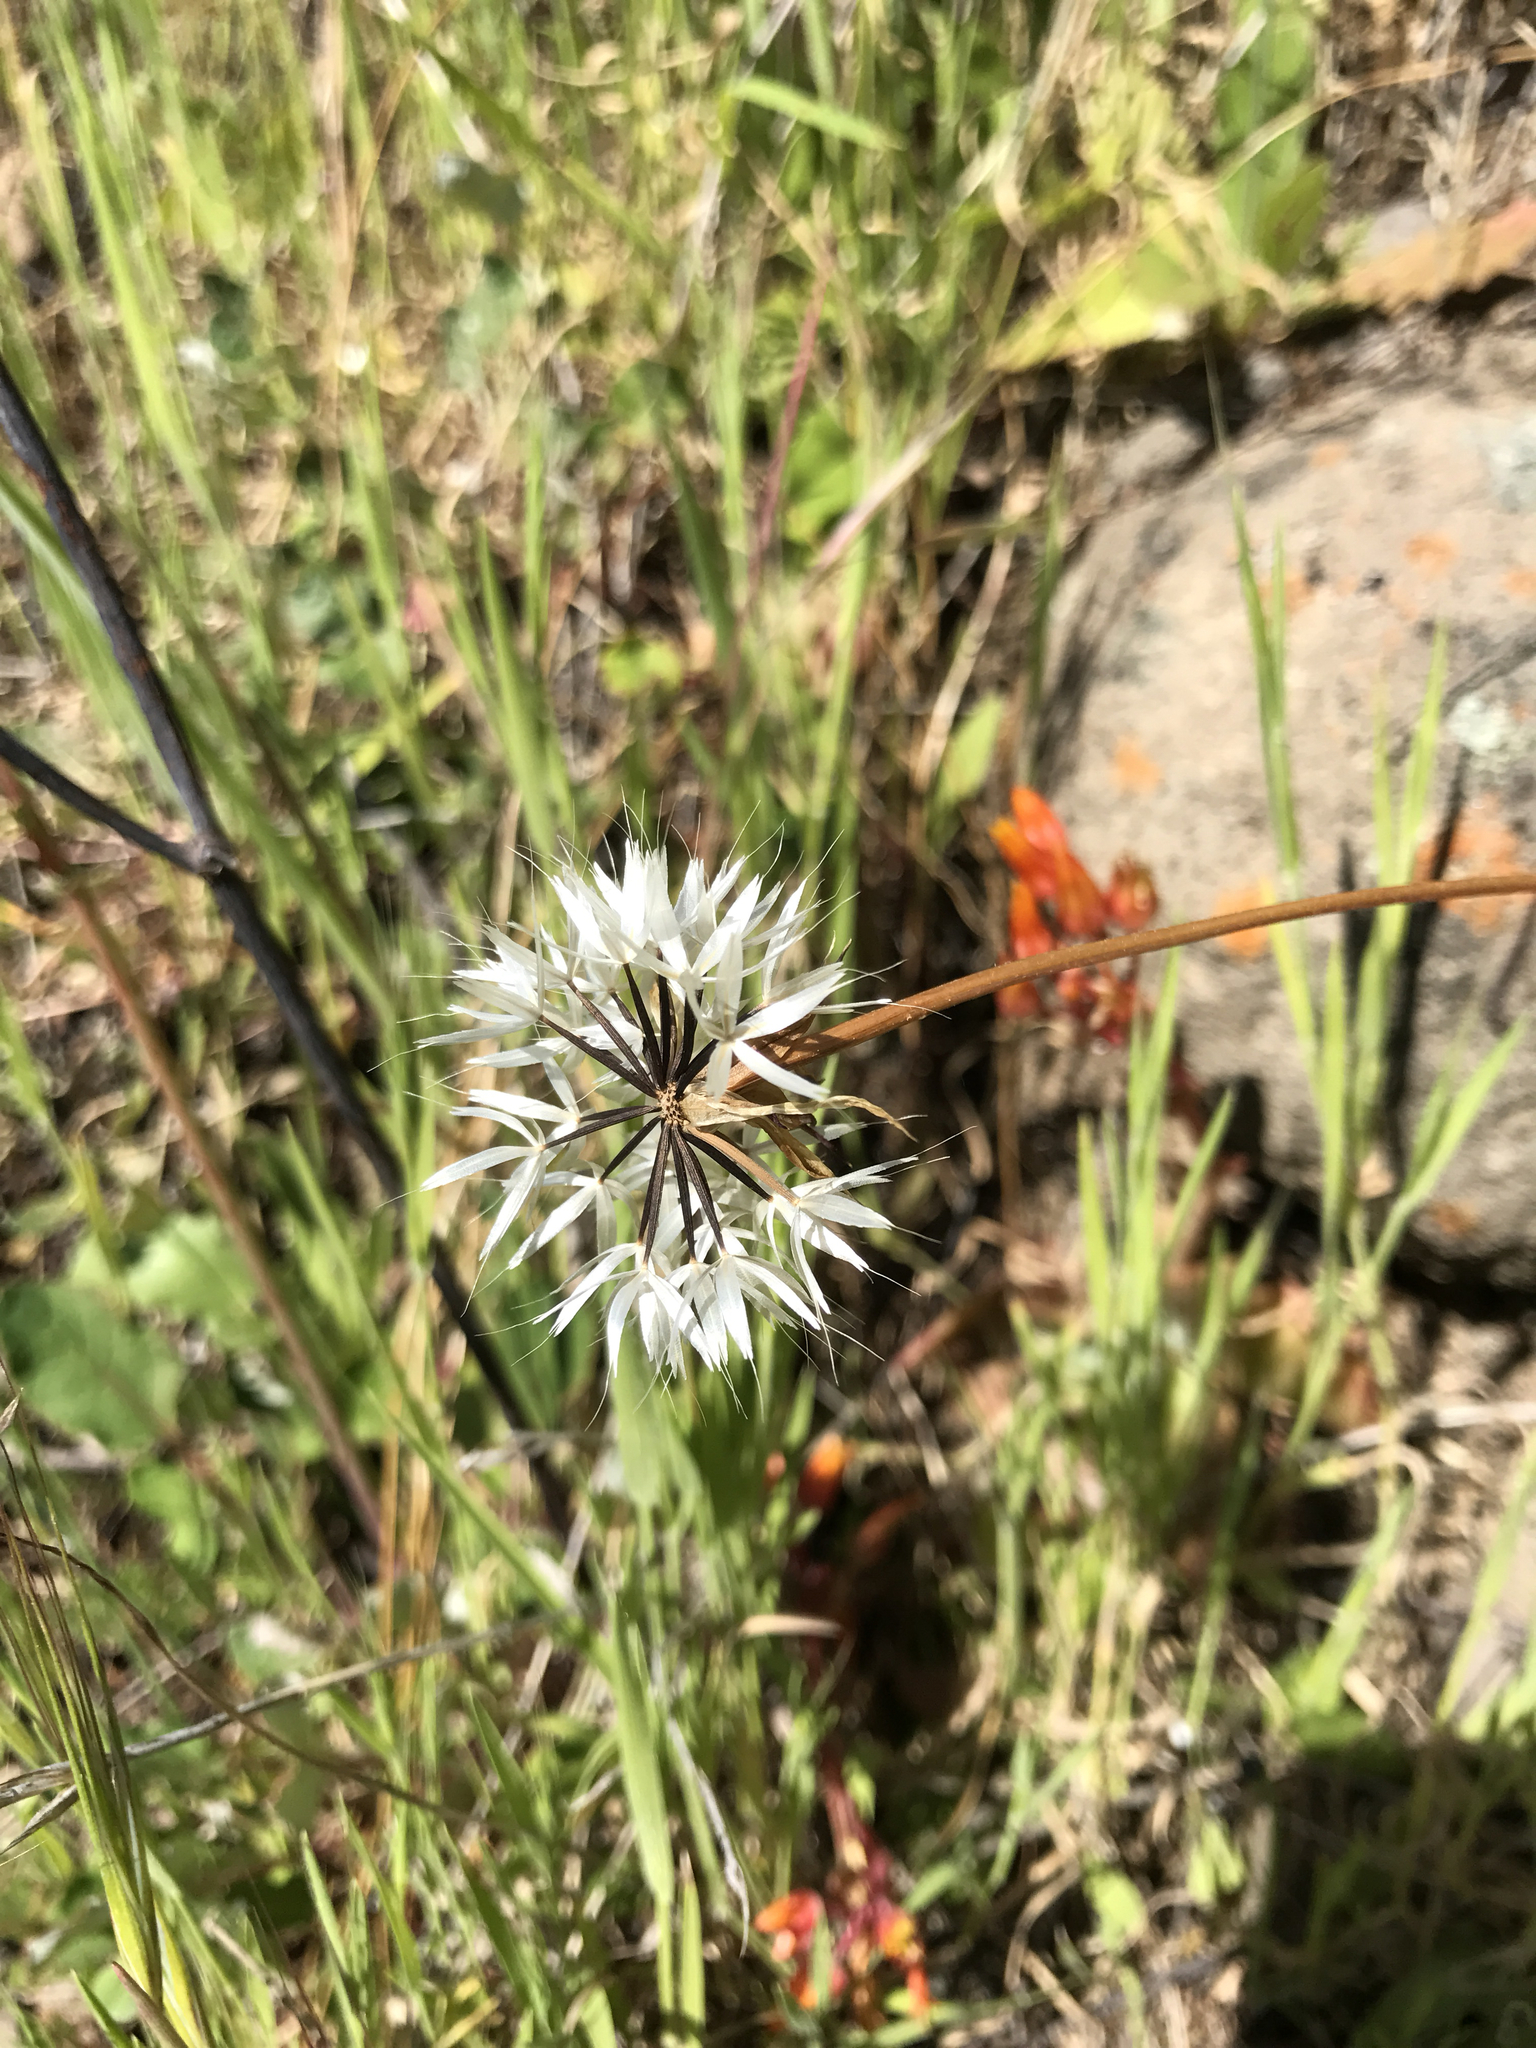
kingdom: Plantae
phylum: Tracheophyta
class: Magnoliopsida
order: Asterales
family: Asteraceae
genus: Microseris
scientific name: Microseris lindleyi
